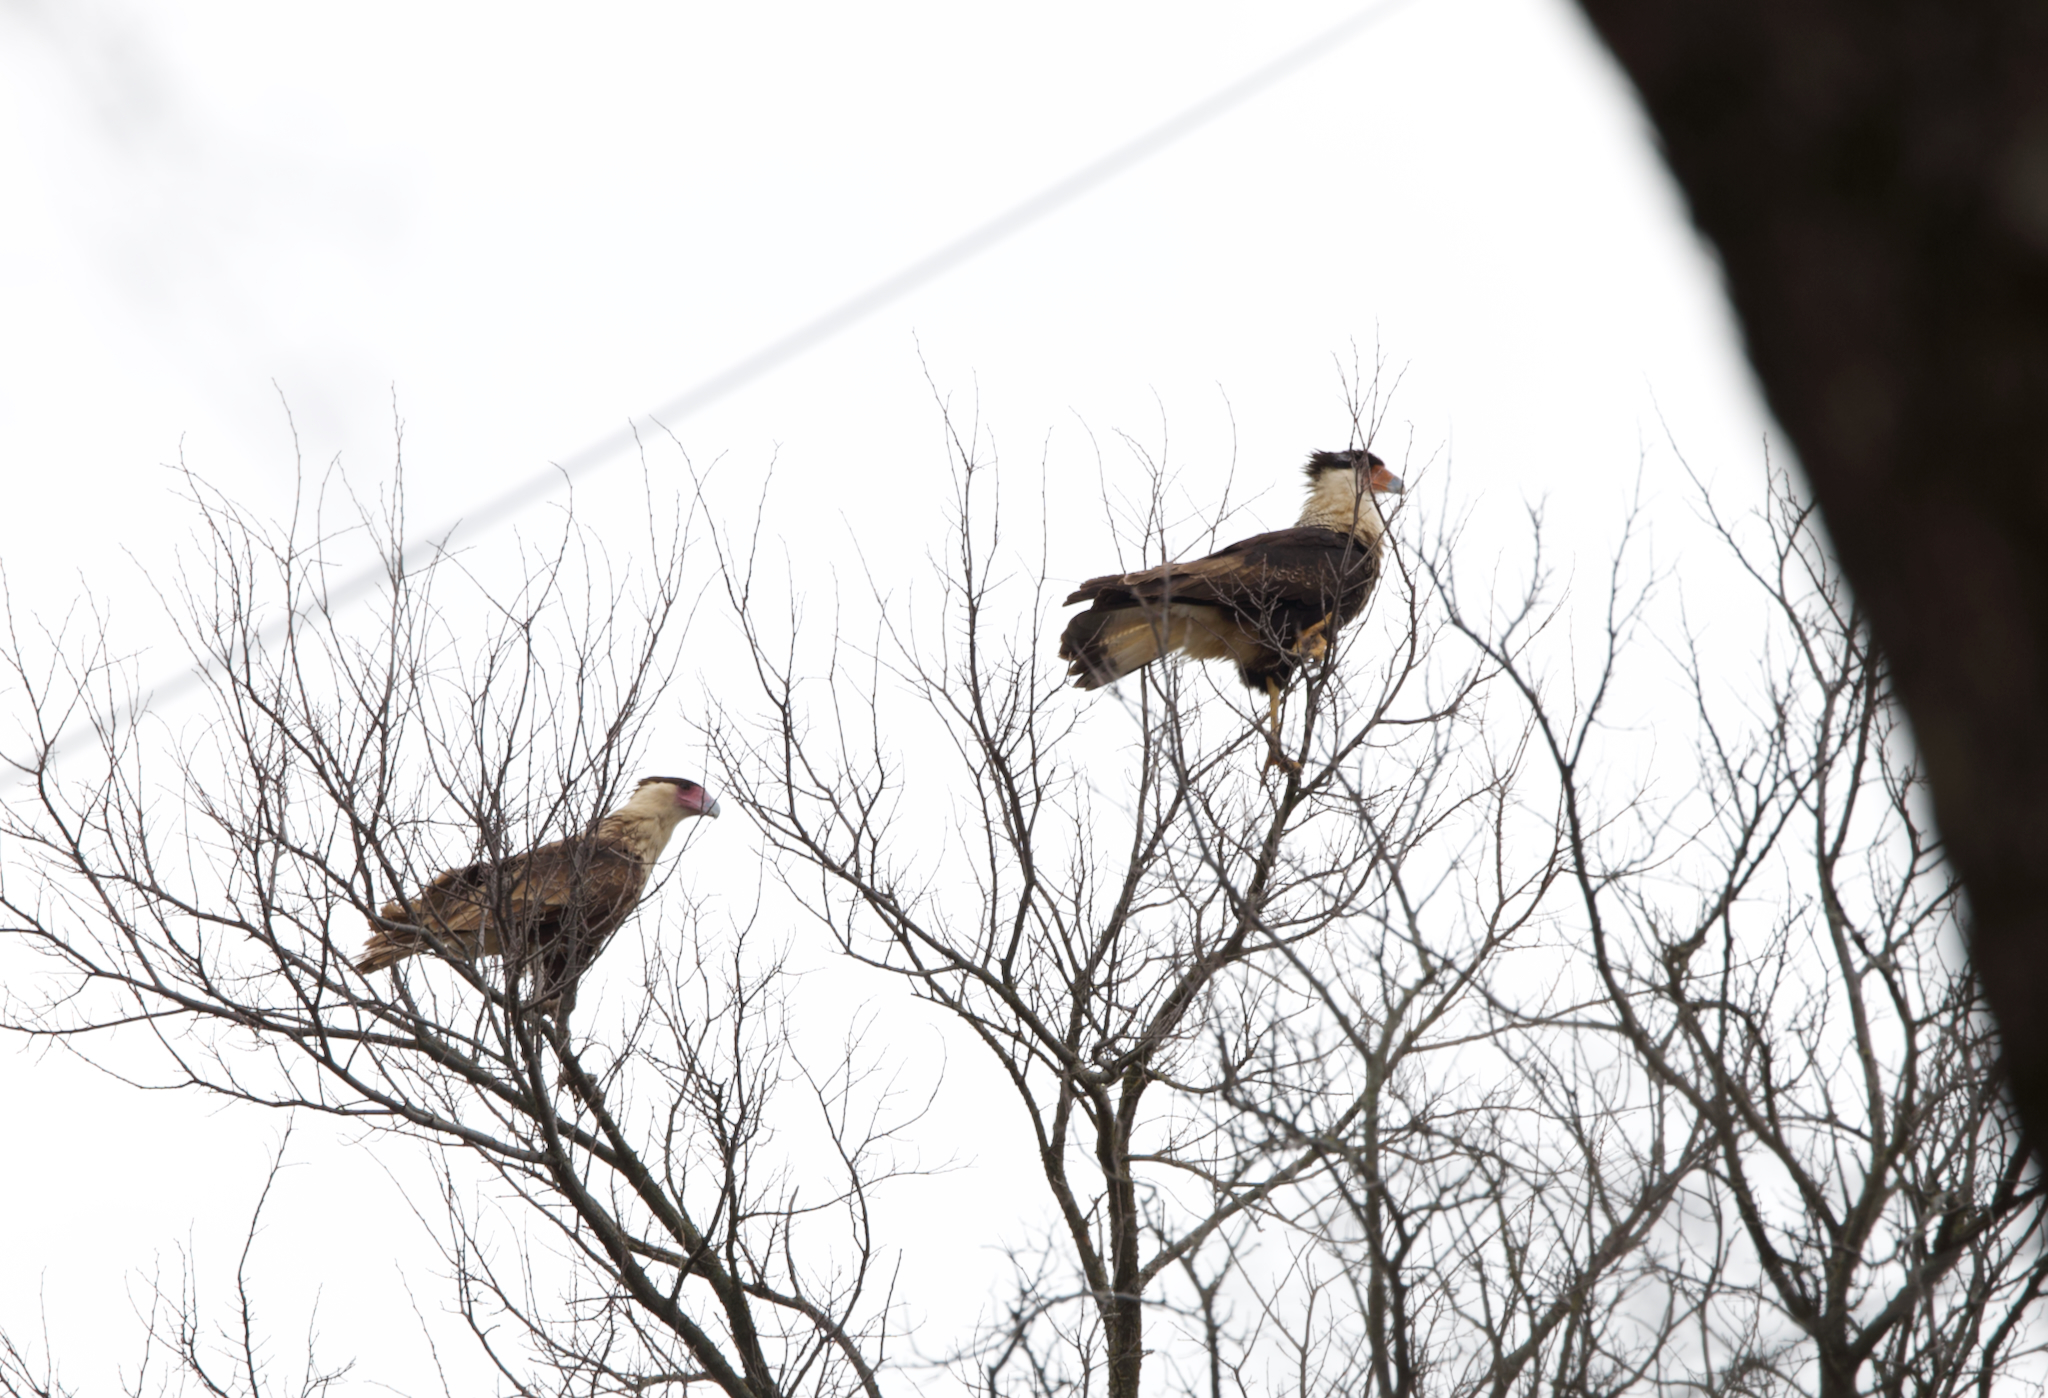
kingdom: Animalia
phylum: Chordata
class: Aves
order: Falconiformes
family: Falconidae
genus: Caracara
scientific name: Caracara plancus
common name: Southern caracara
